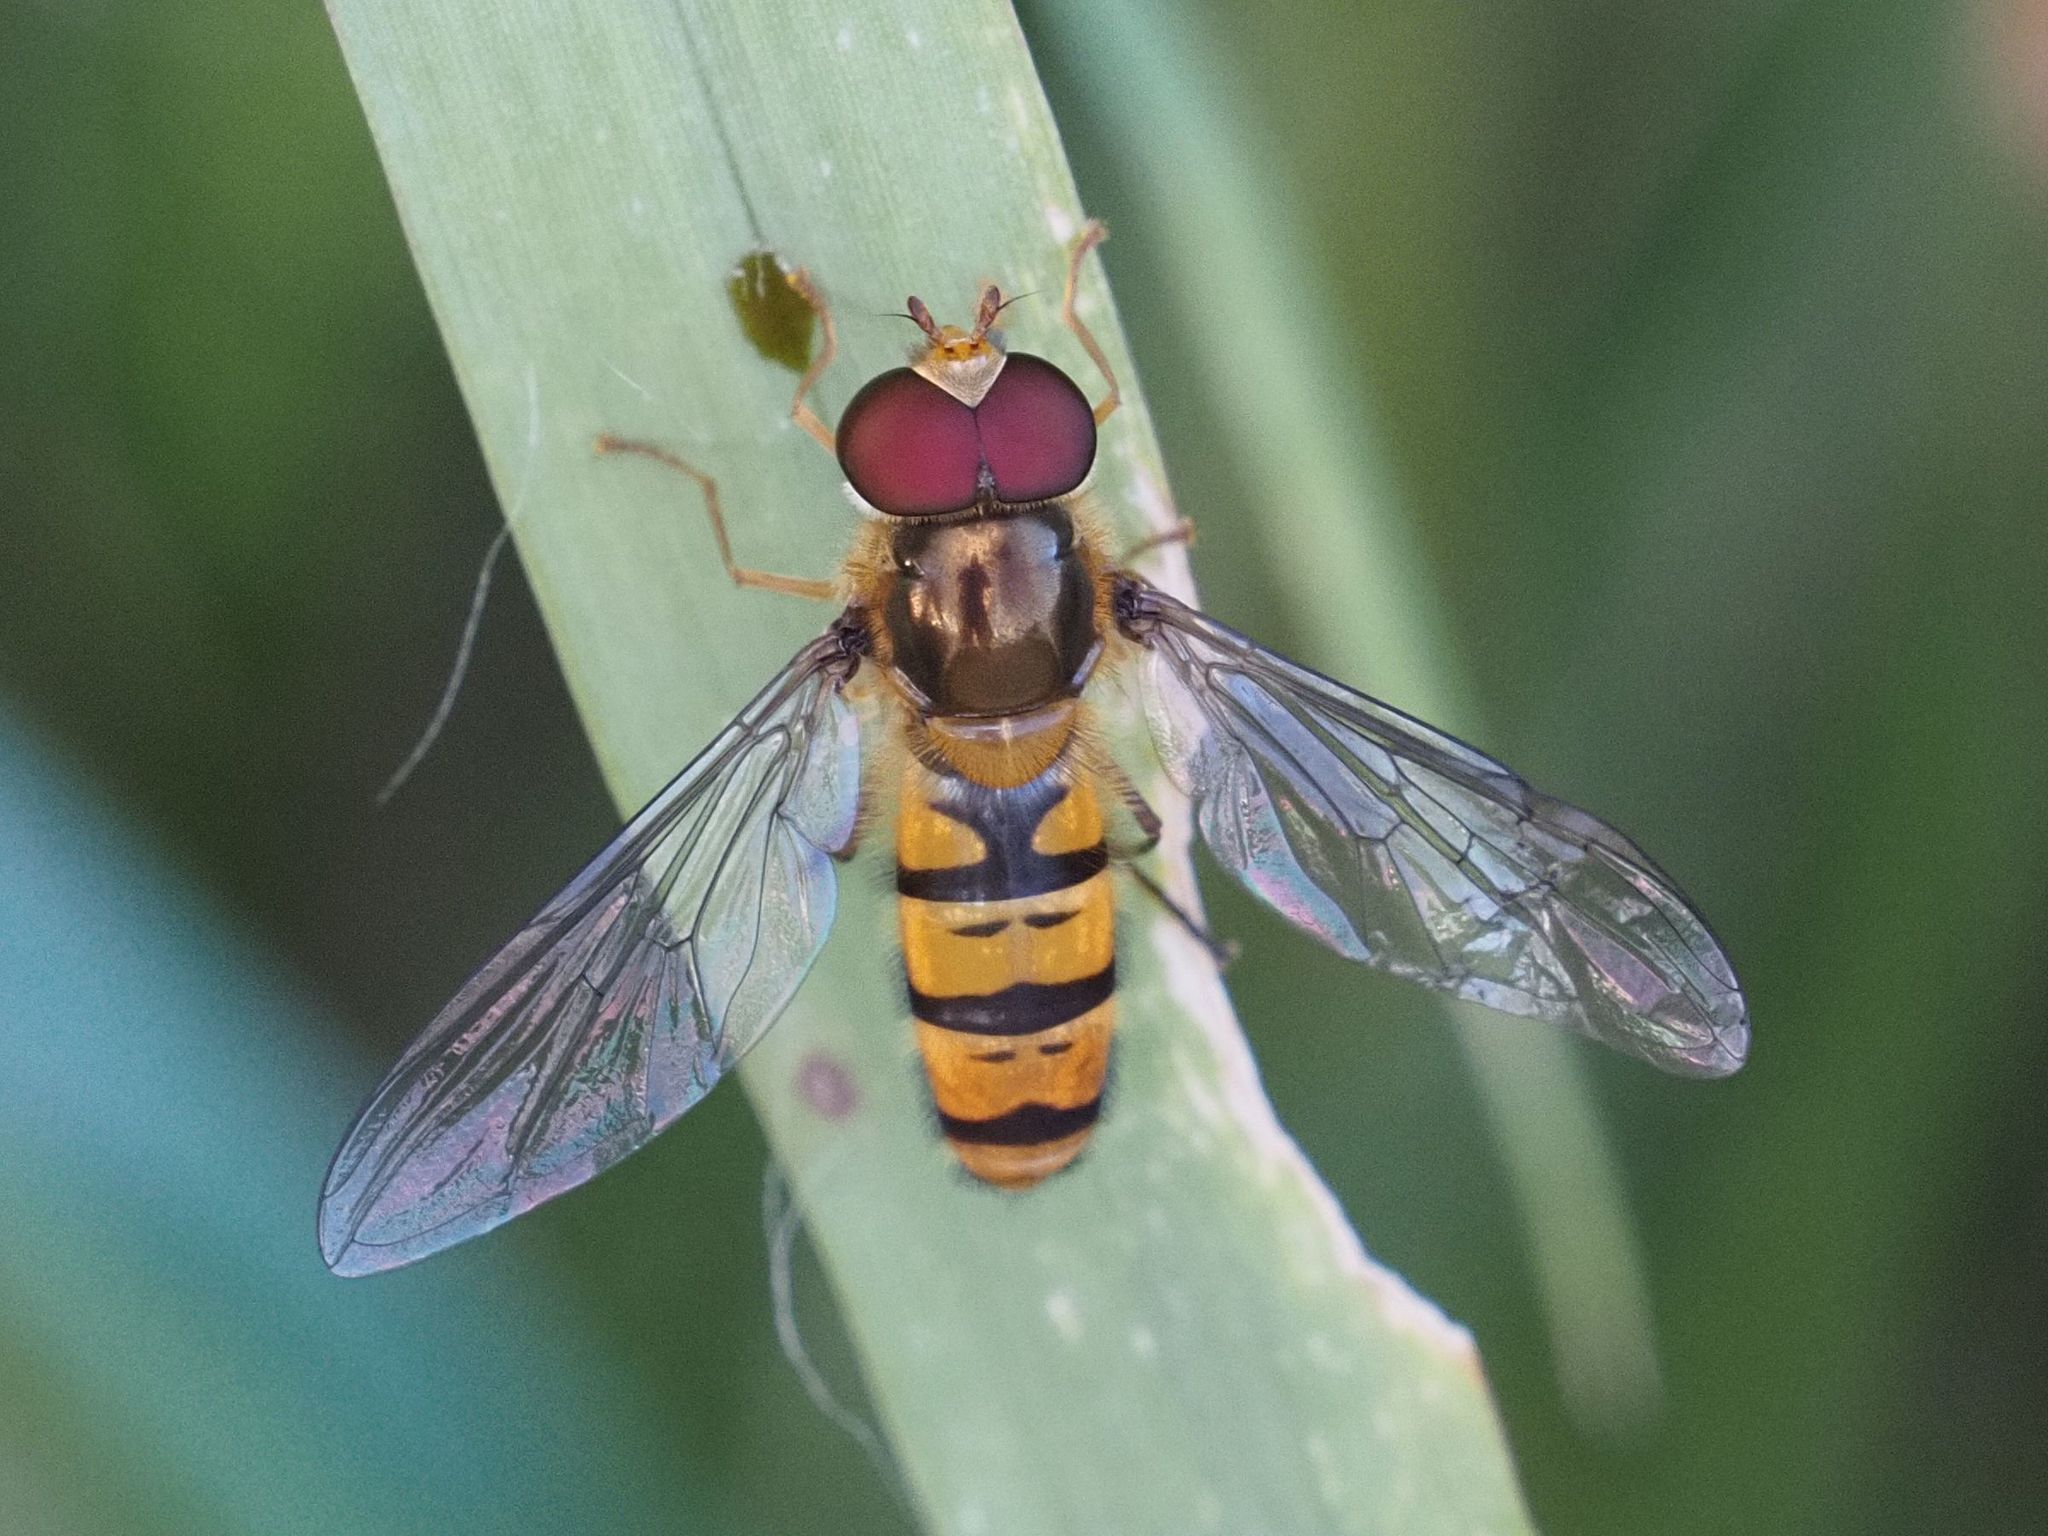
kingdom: Animalia
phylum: Arthropoda
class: Insecta
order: Diptera
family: Syrphidae
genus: Episyrphus
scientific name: Episyrphus balteatus
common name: Marmalade hoverfly
